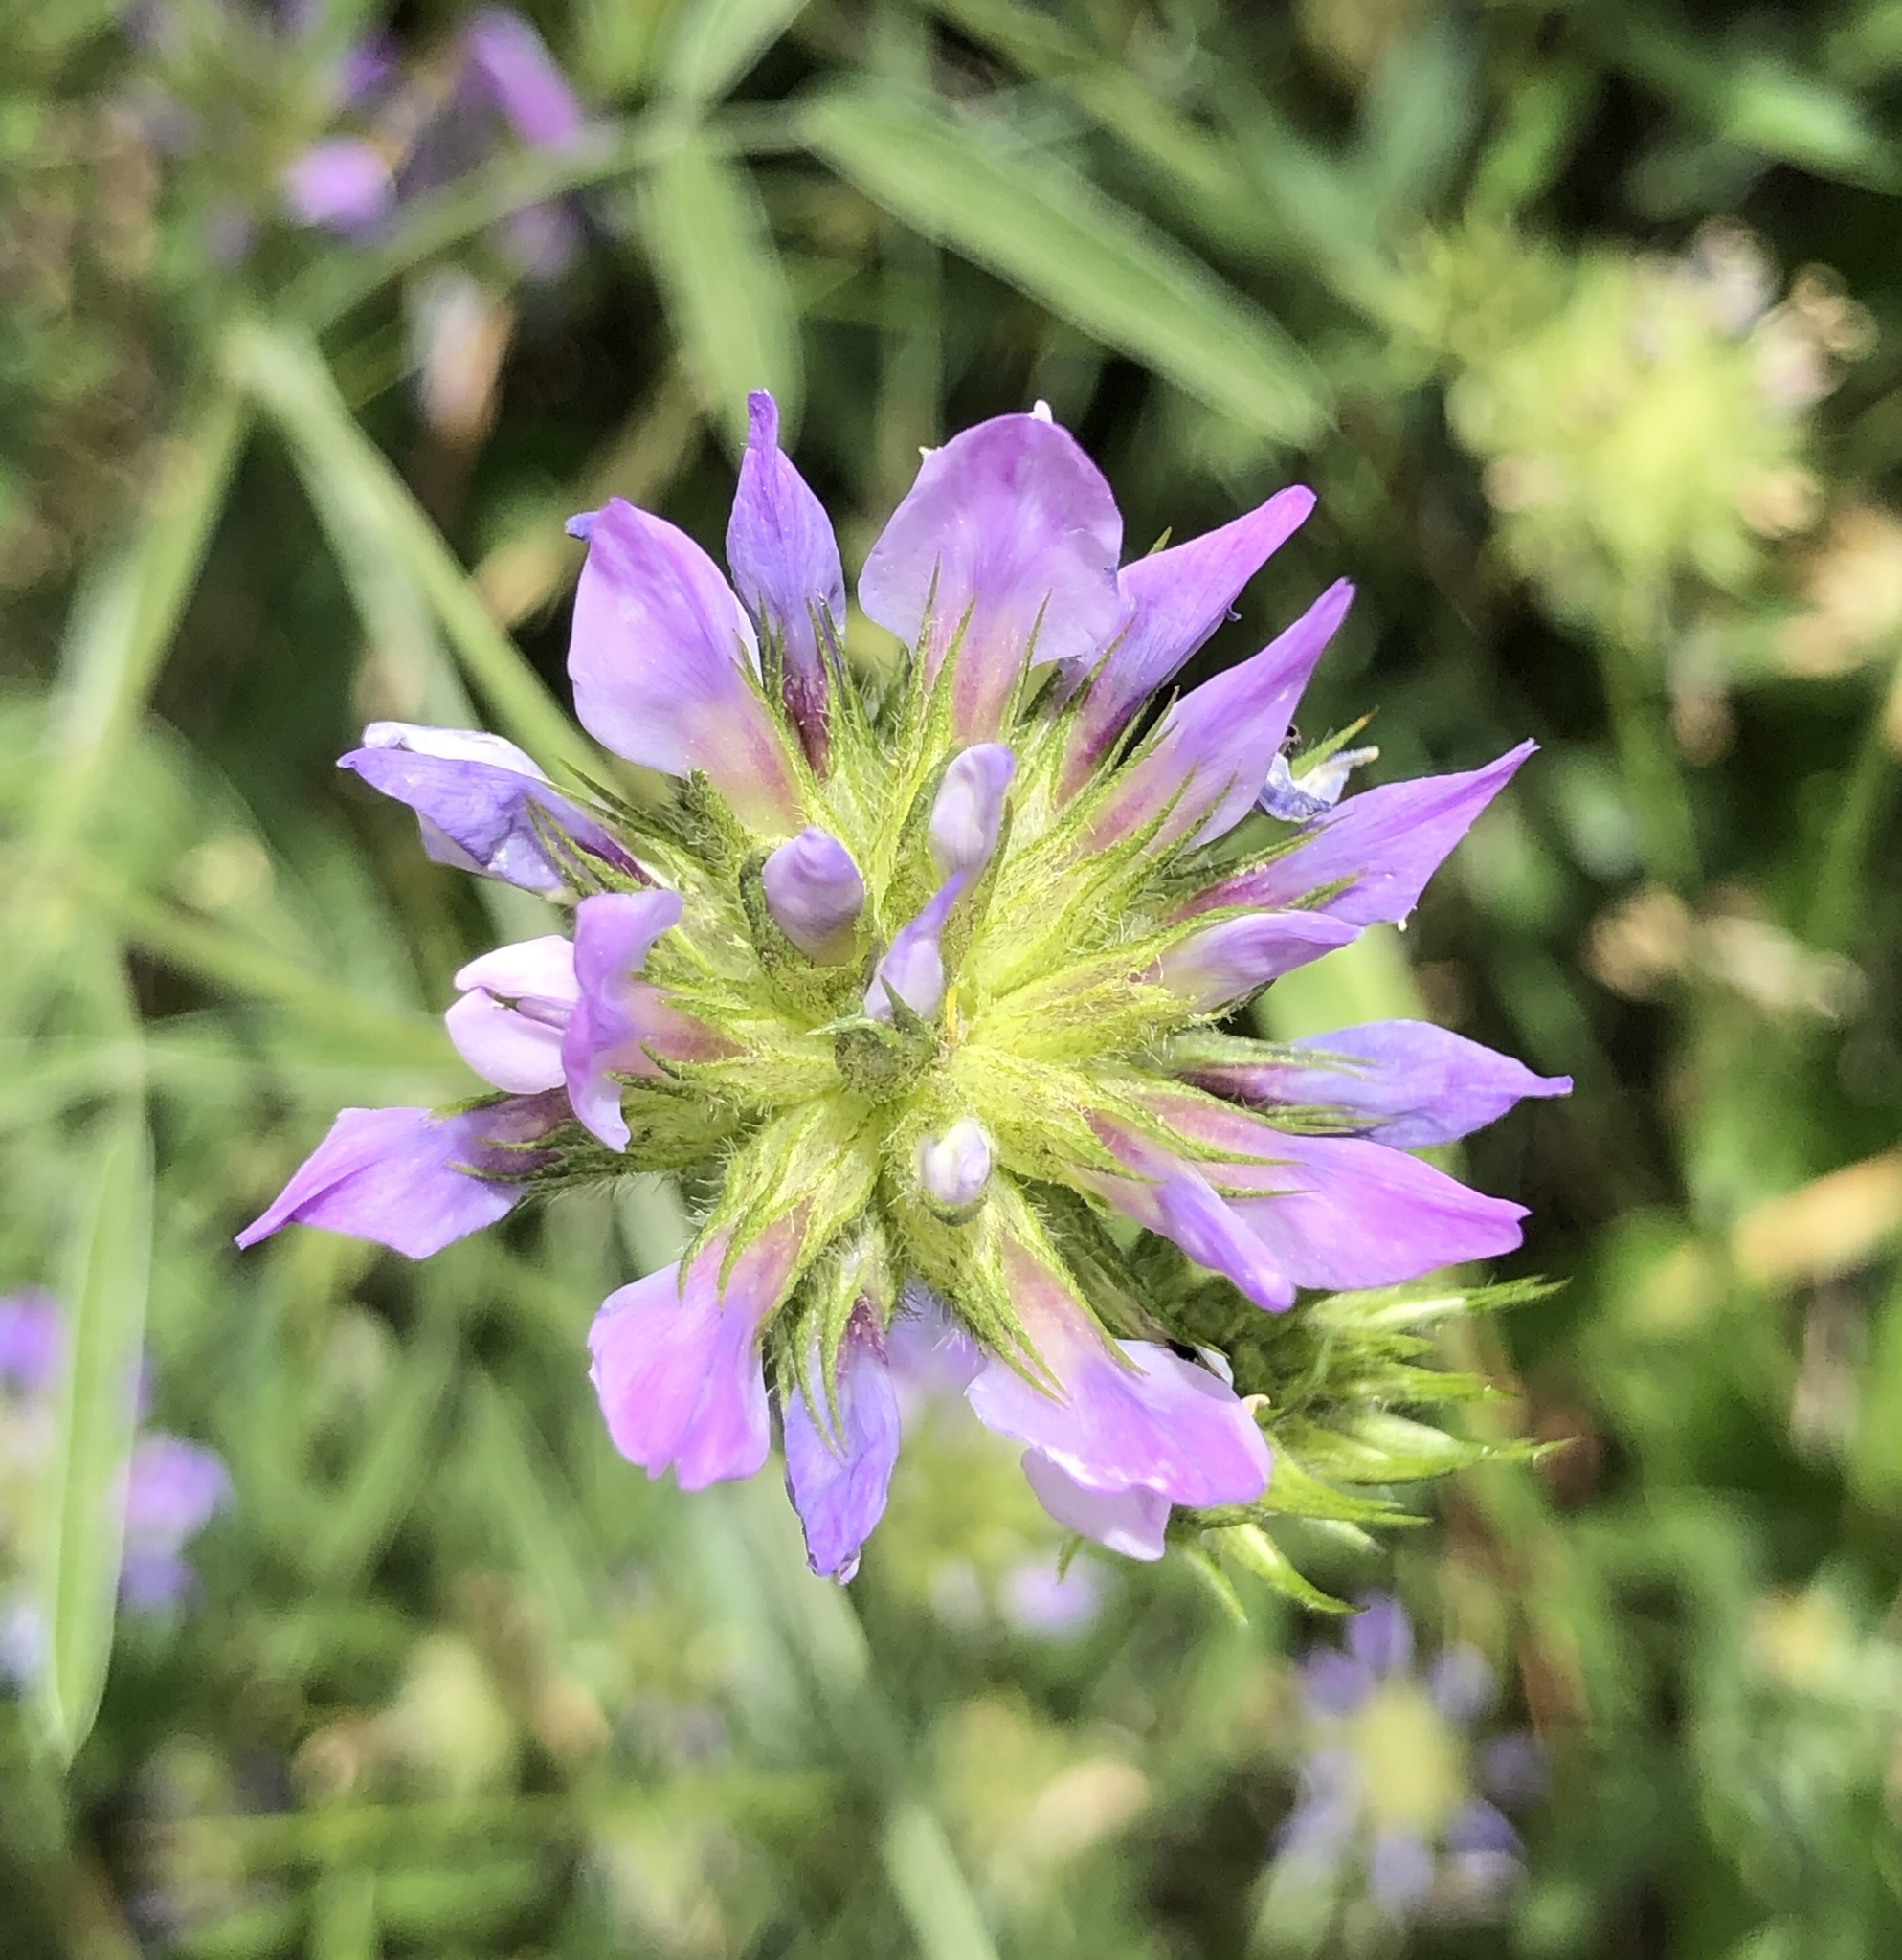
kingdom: Plantae
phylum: Tracheophyta
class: Magnoliopsida
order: Fabales
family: Fabaceae
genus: Bituminaria
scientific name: Bituminaria bituminosa
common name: Arabian pea
